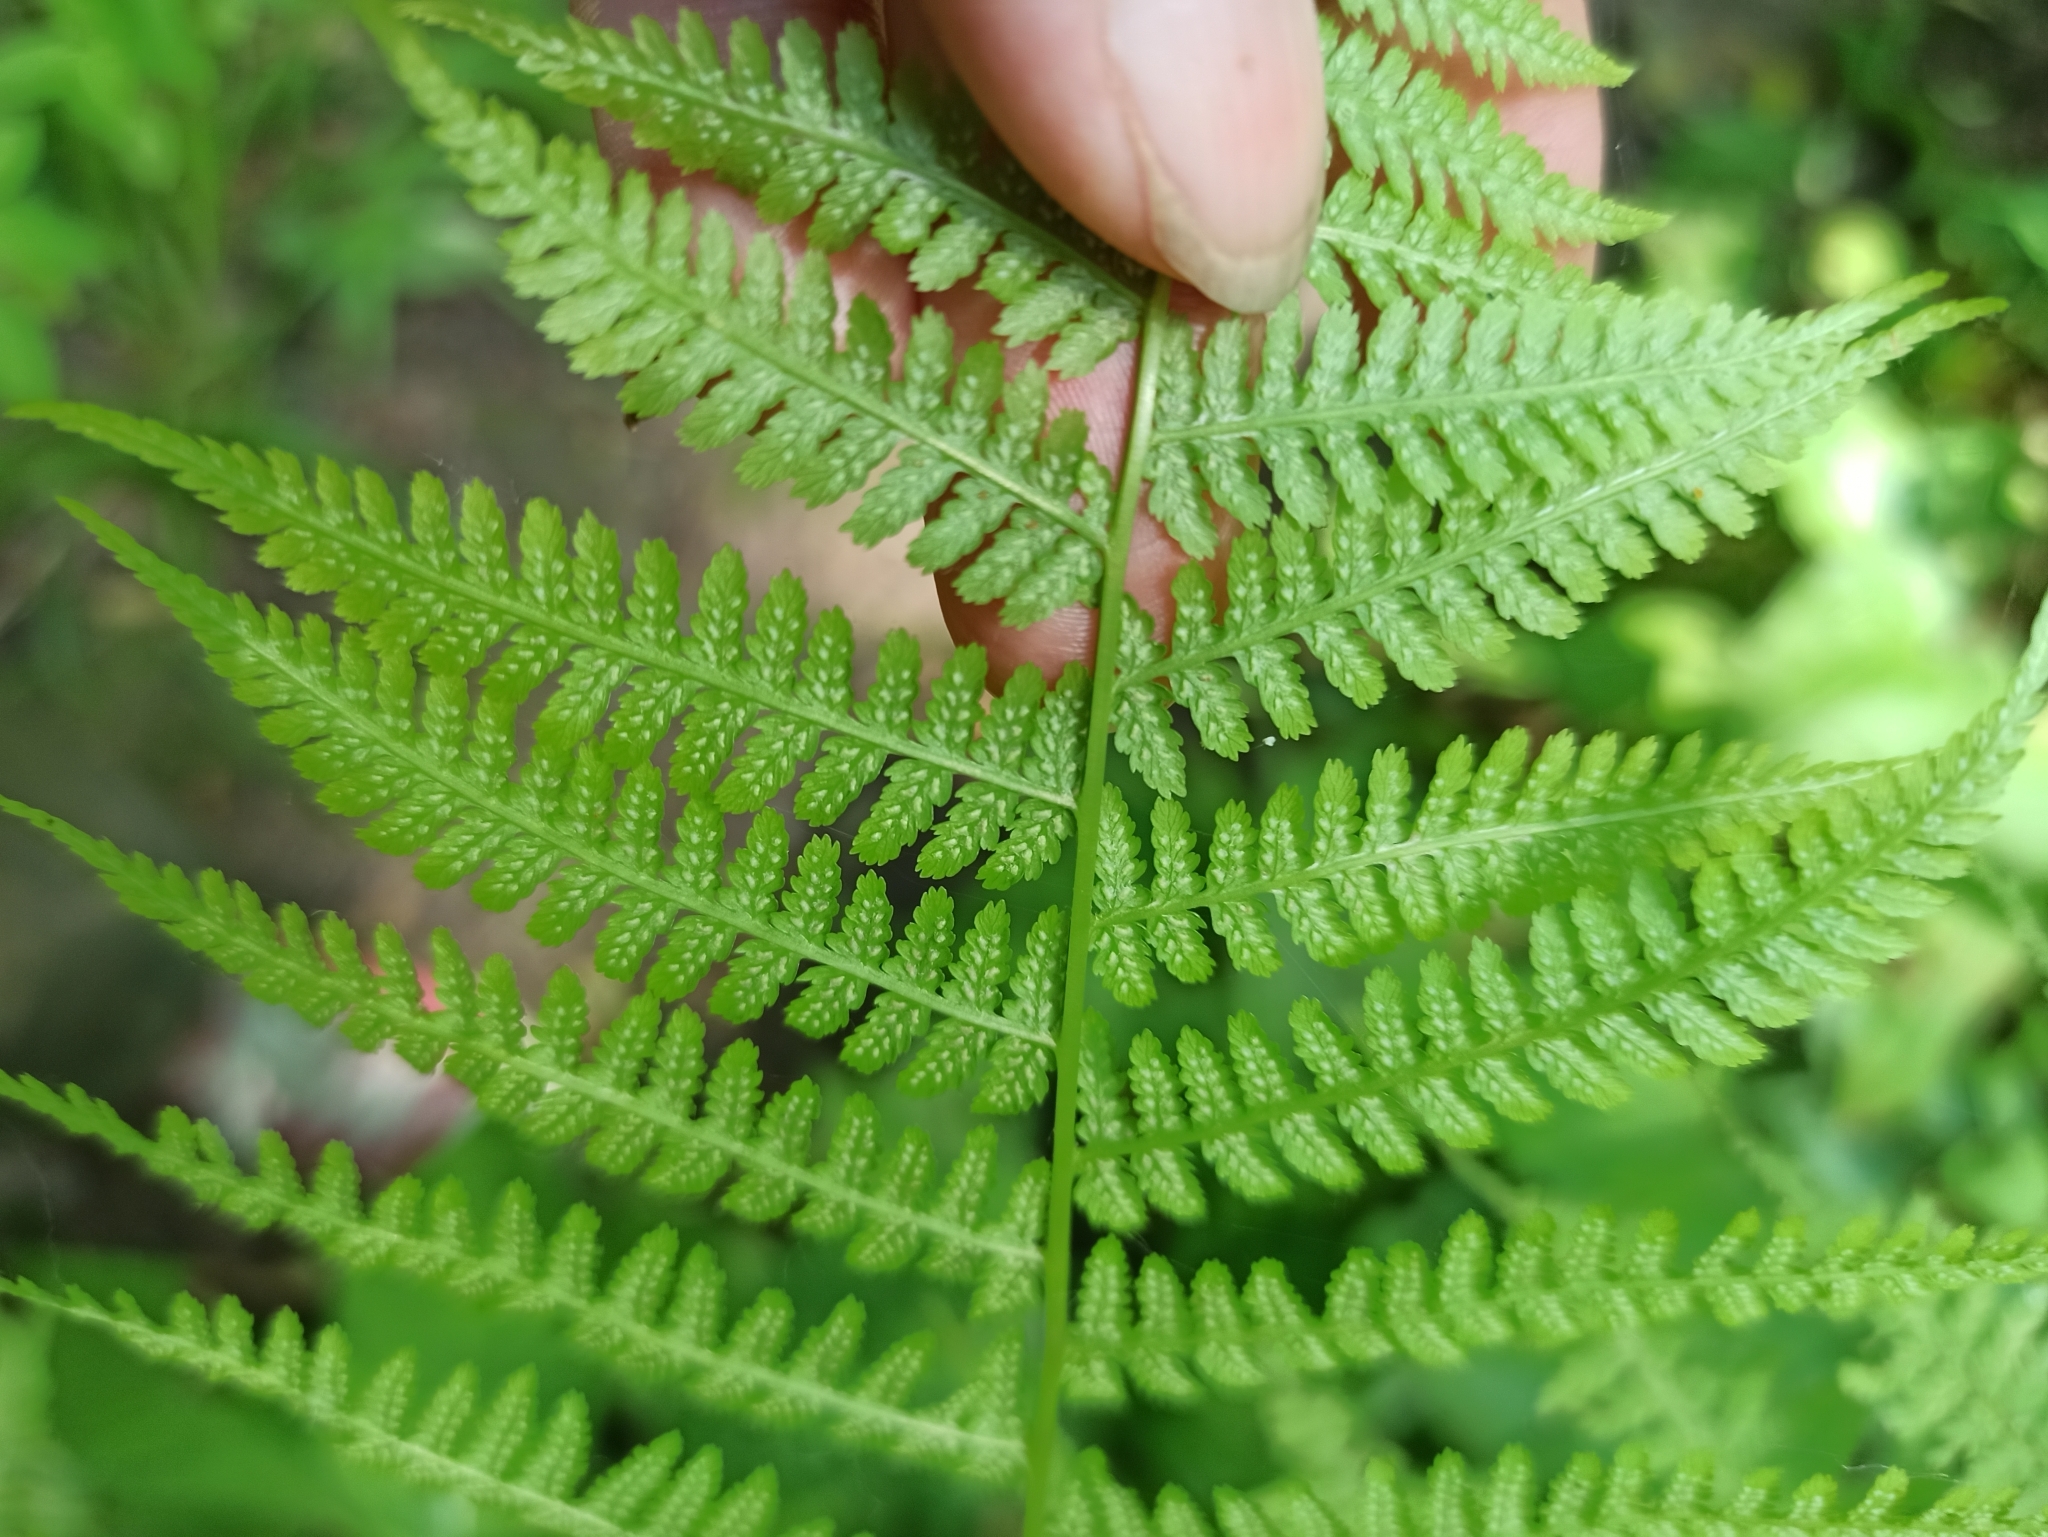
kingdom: Plantae
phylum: Tracheophyta
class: Polypodiopsida
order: Polypodiales
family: Athyriaceae
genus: Athyrium
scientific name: Athyrium filix-femina
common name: Lady fern
